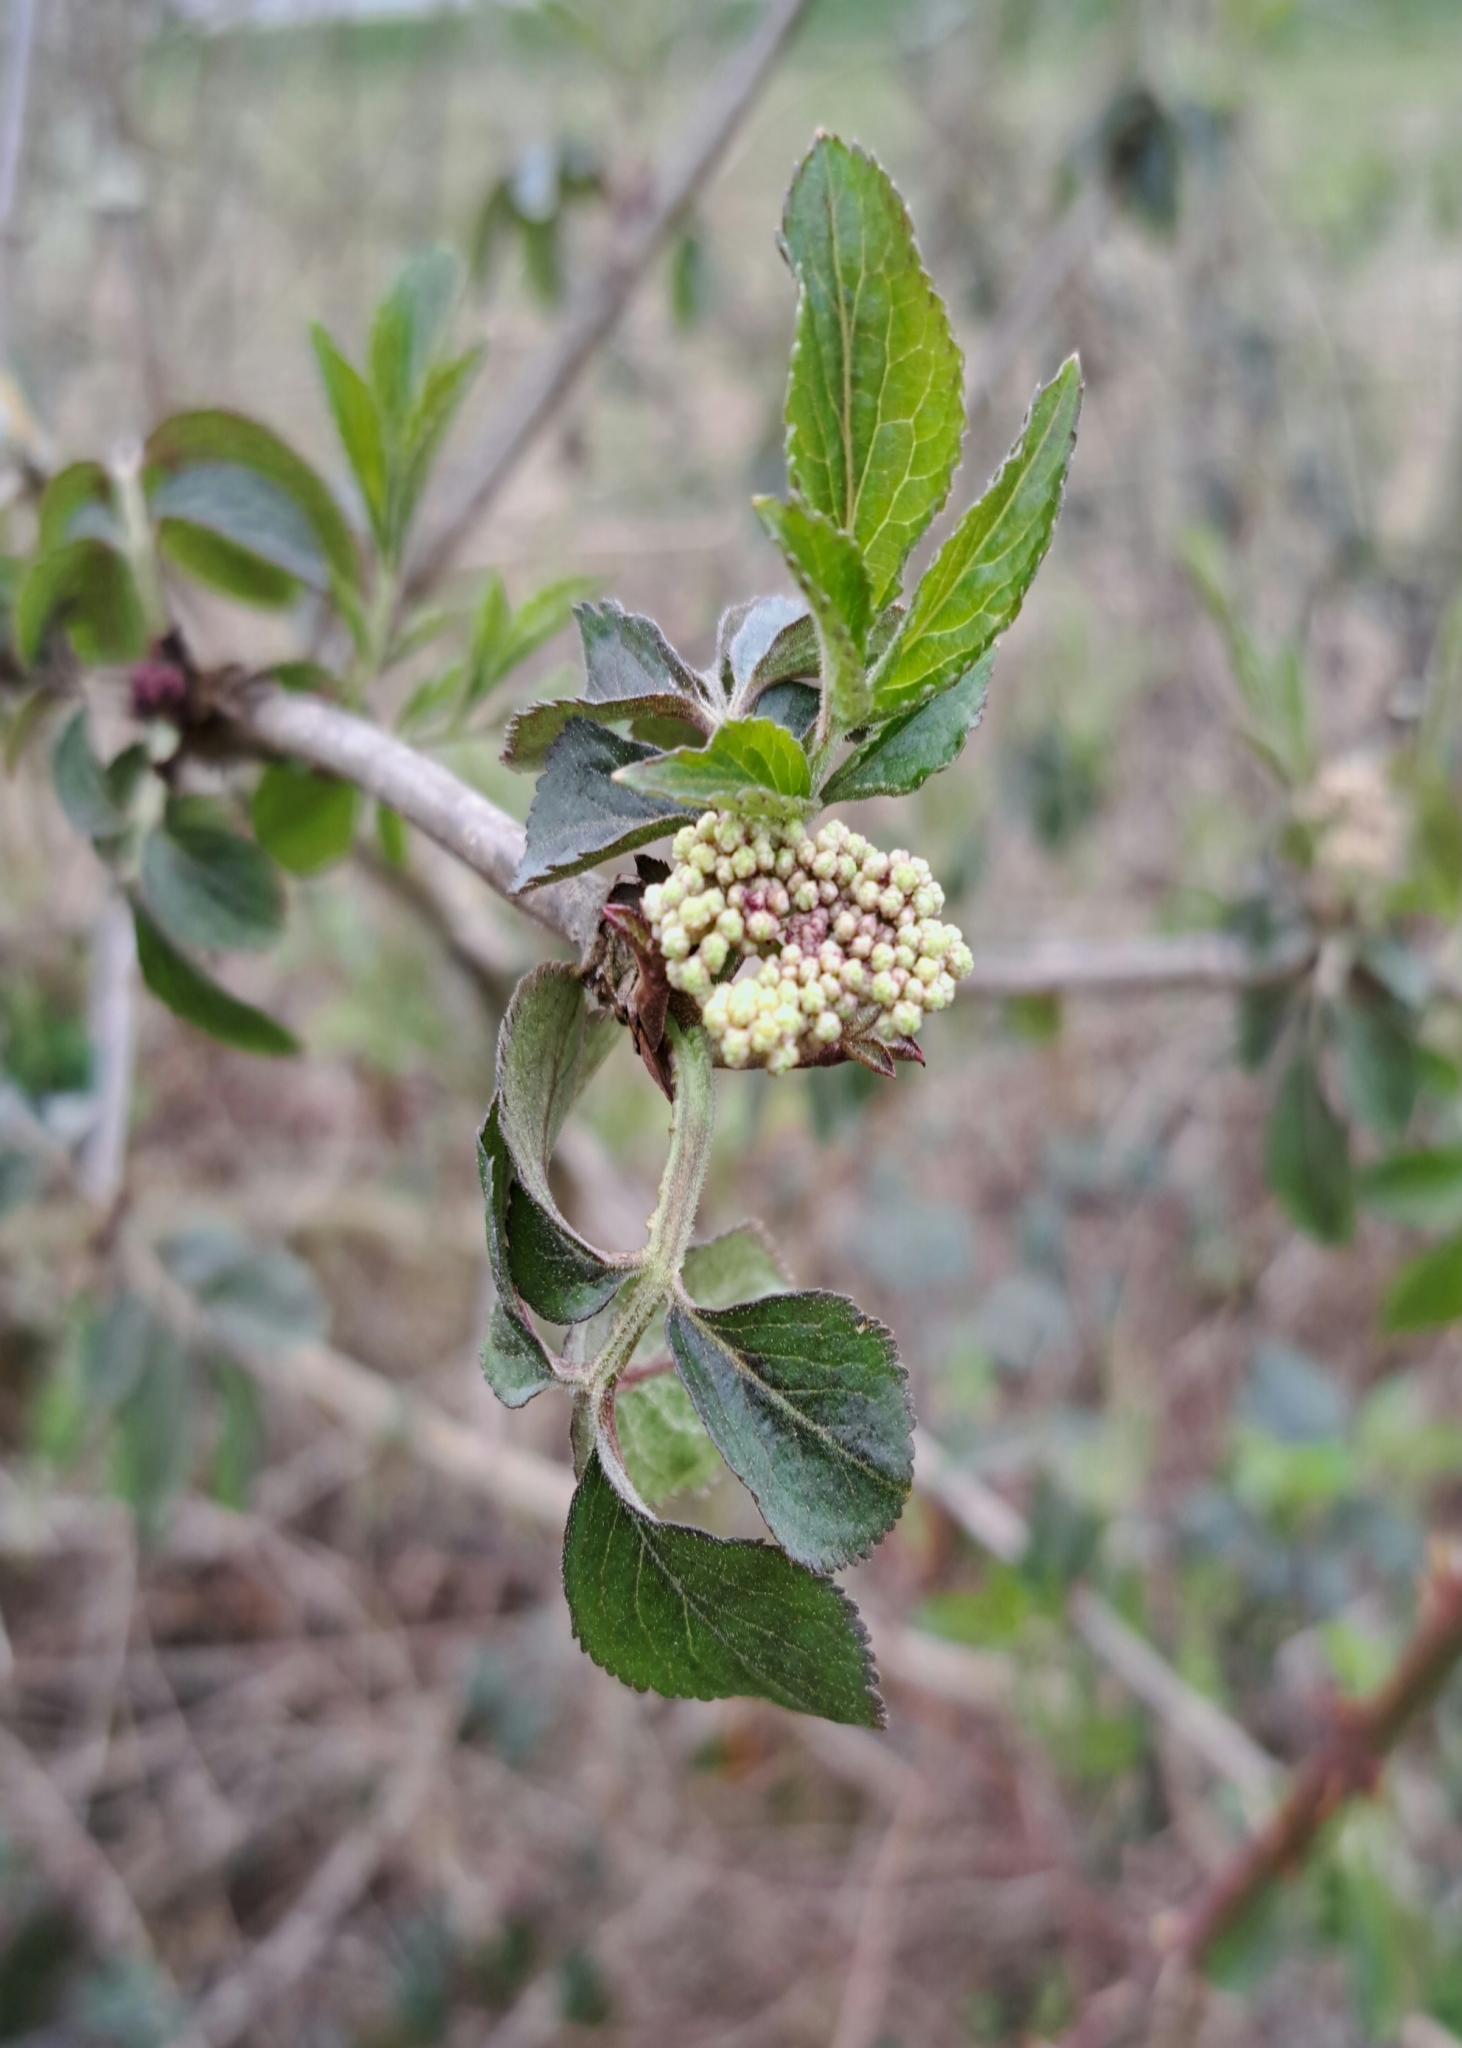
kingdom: Plantae
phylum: Tracheophyta
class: Magnoliopsida
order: Dipsacales
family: Viburnaceae
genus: Sambucus
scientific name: Sambucus nigra
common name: Elder
